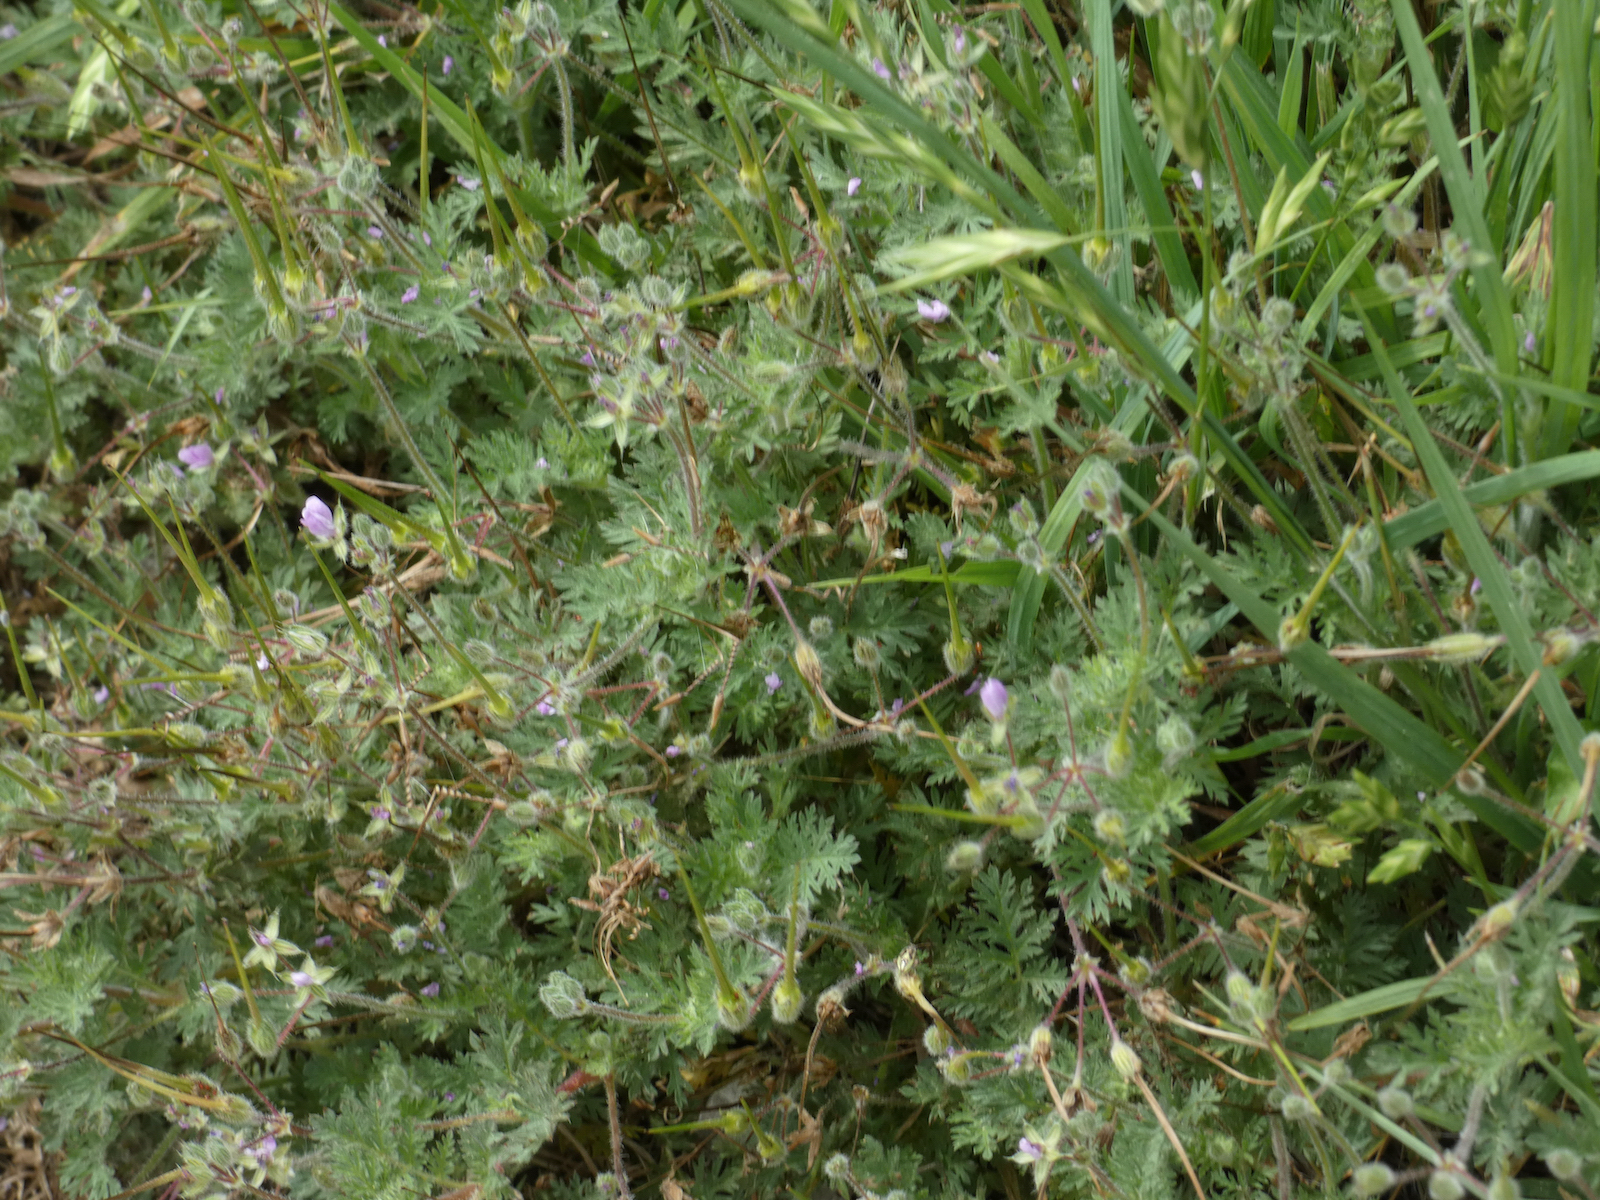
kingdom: Plantae
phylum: Tracheophyta
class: Magnoliopsida
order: Geraniales
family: Geraniaceae
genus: Erodium
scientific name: Erodium cicutarium
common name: Common stork's-bill
